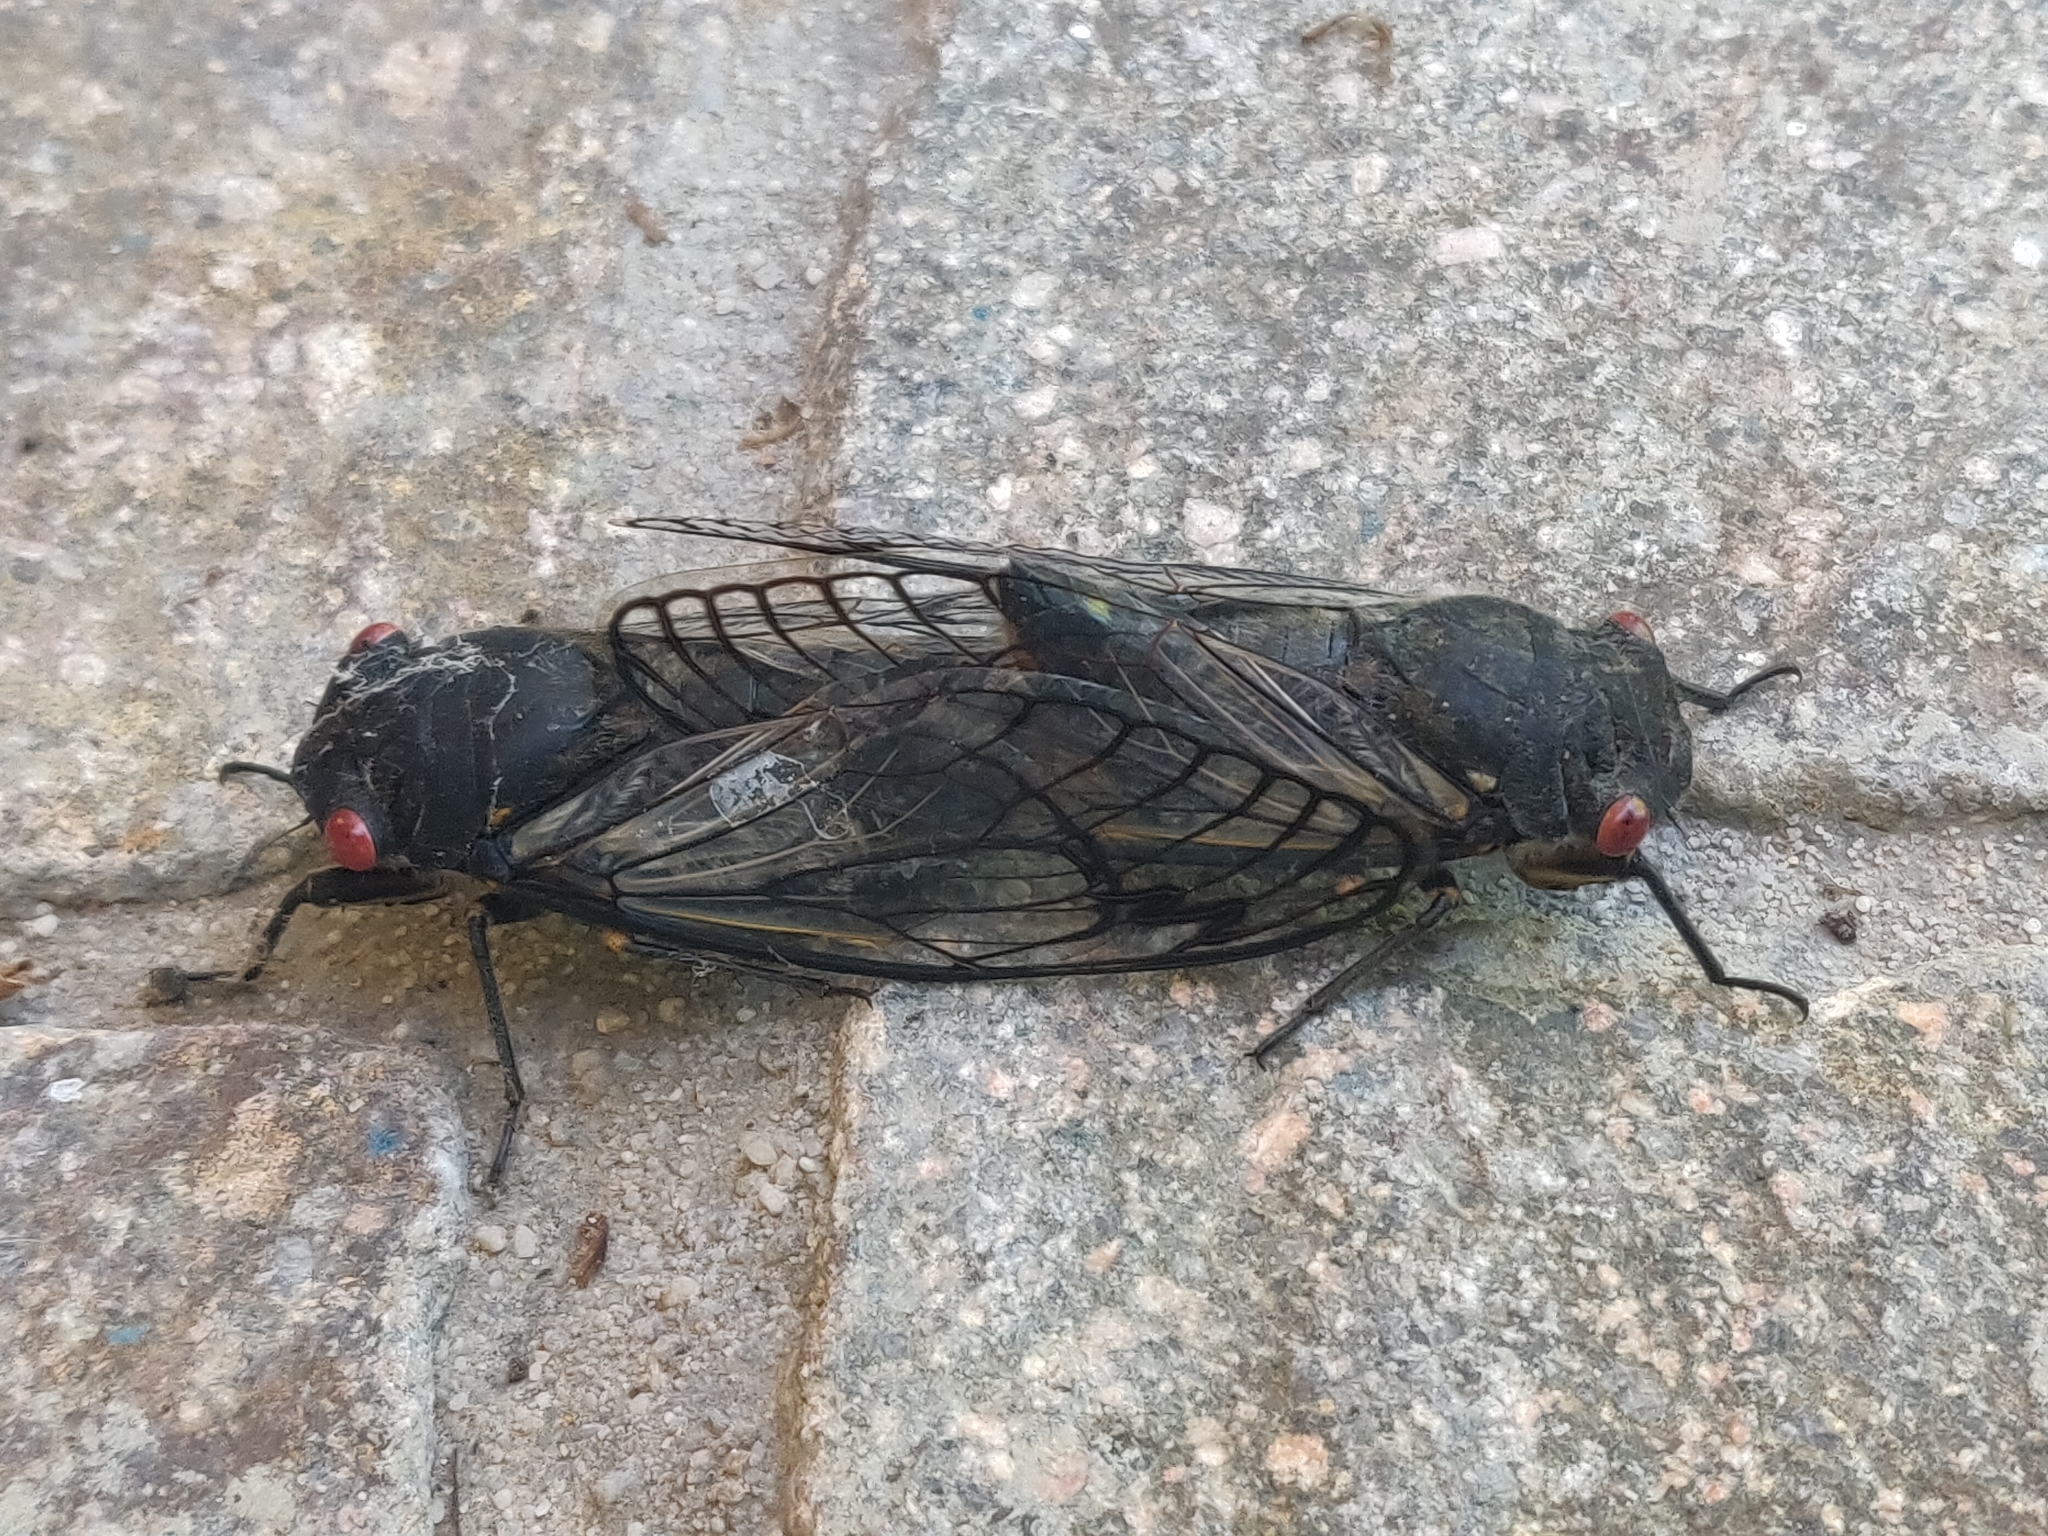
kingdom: Animalia
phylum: Arthropoda
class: Insecta
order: Hemiptera
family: Cicadidae
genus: Psaltoda
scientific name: Psaltoda moerens
